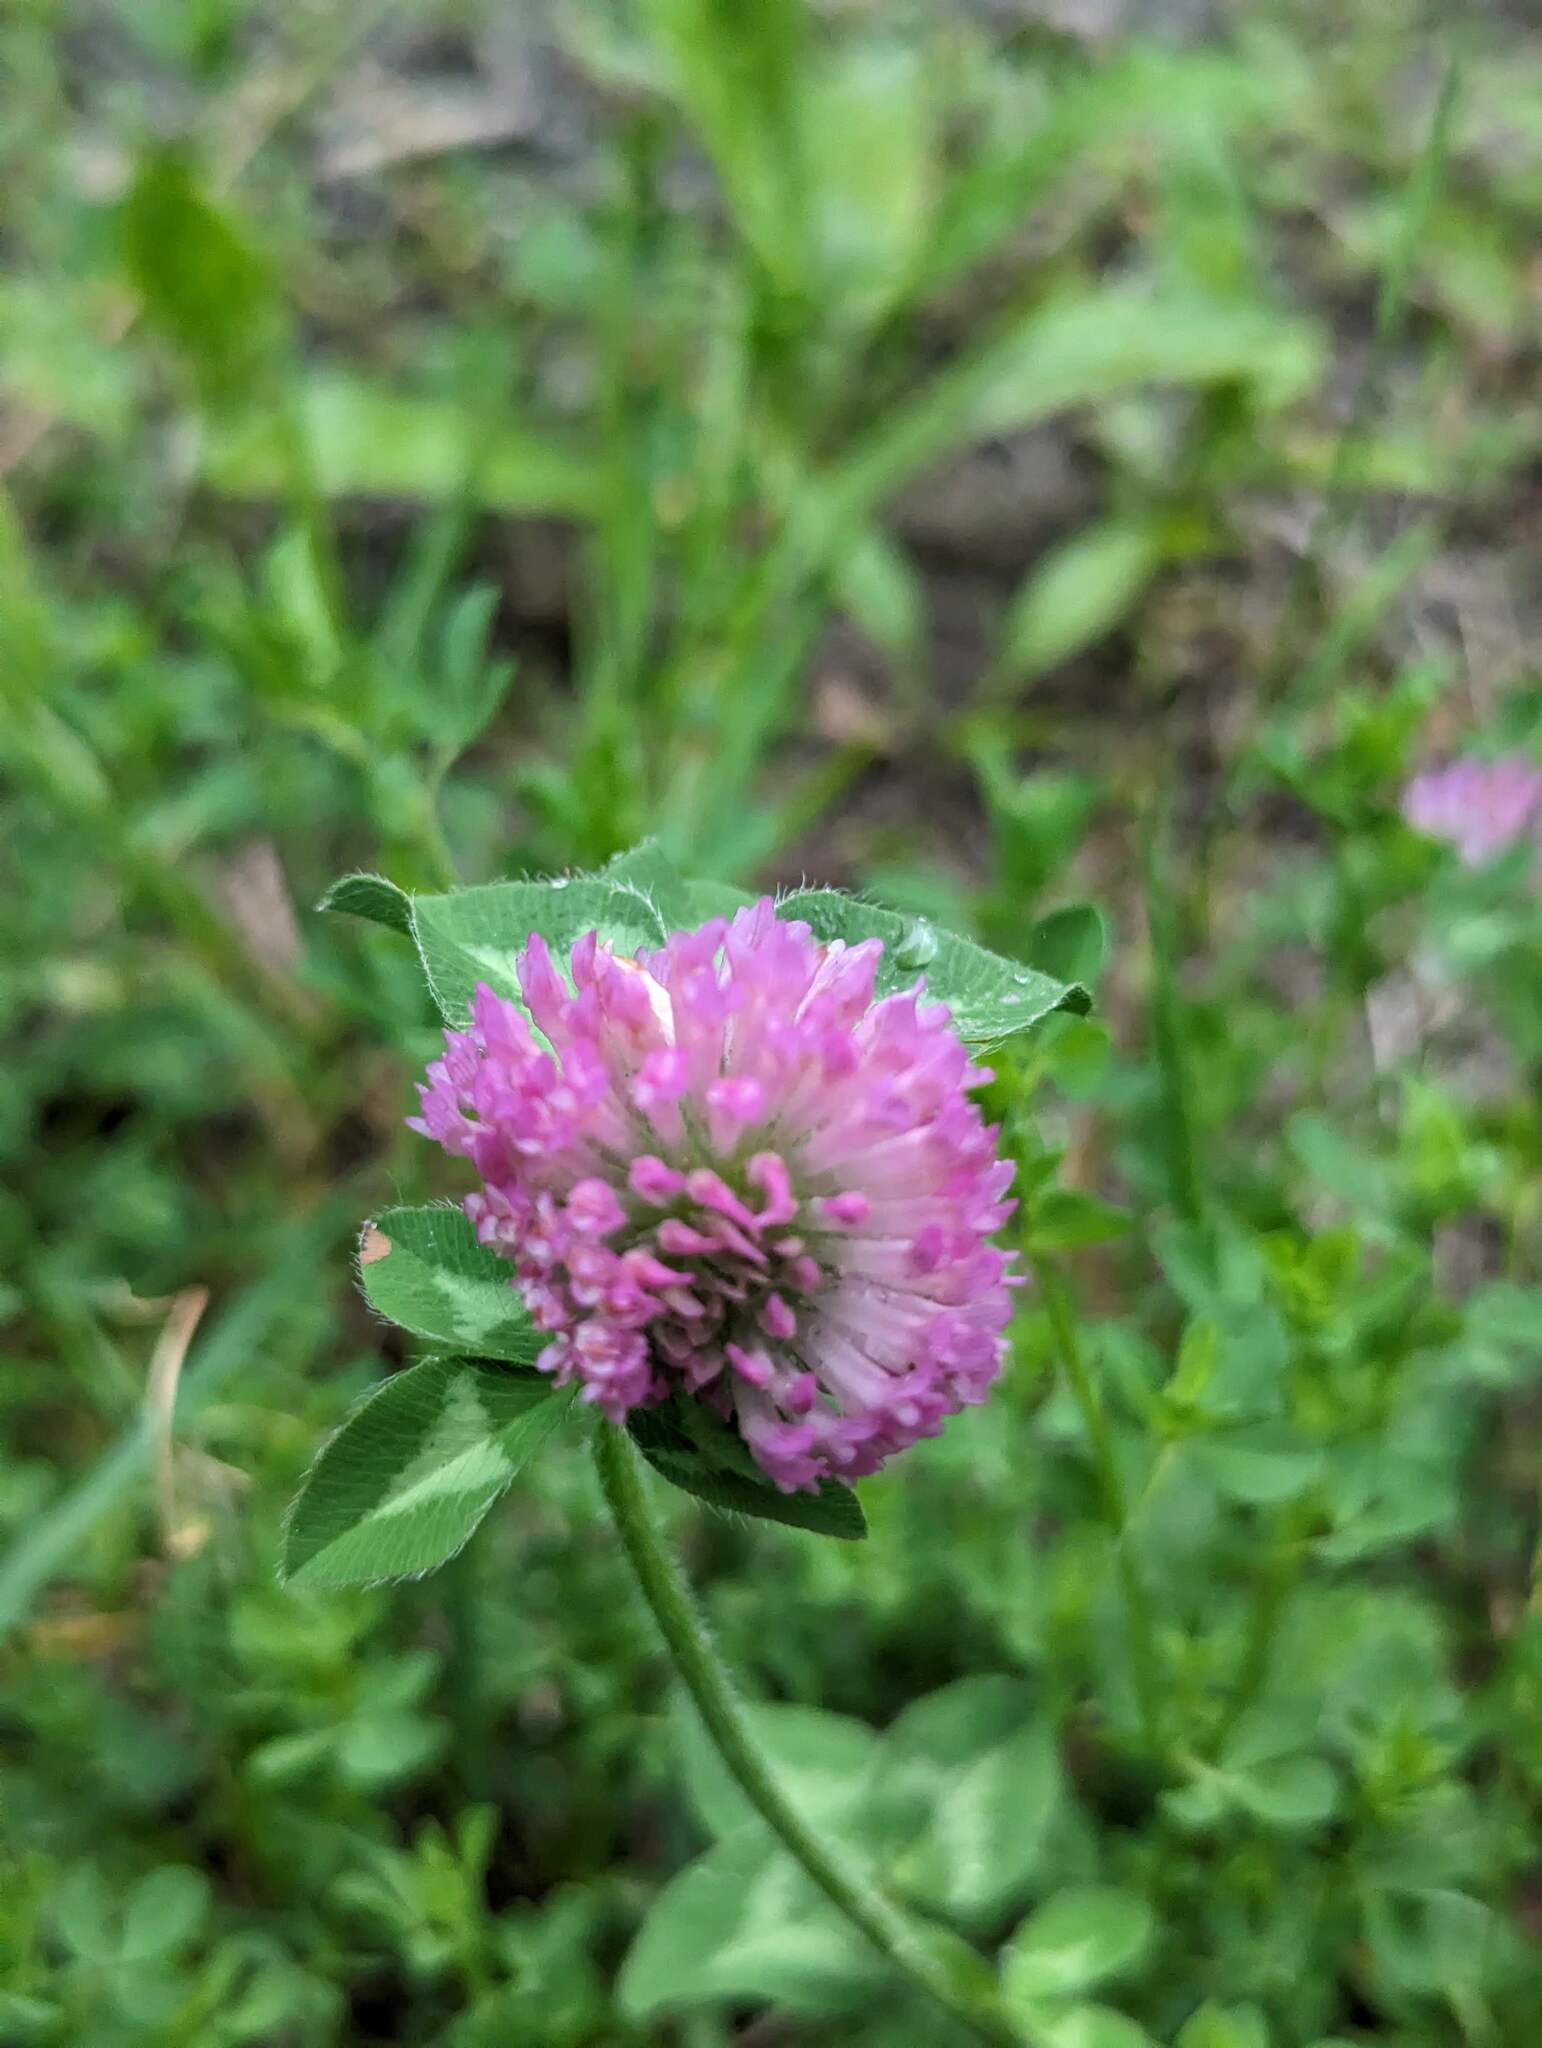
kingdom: Plantae
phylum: Tracheophyta
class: Magnoliopsida
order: Fabales
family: Fabaceae
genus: Trifolium
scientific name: Trifolium pratense
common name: Red clover
